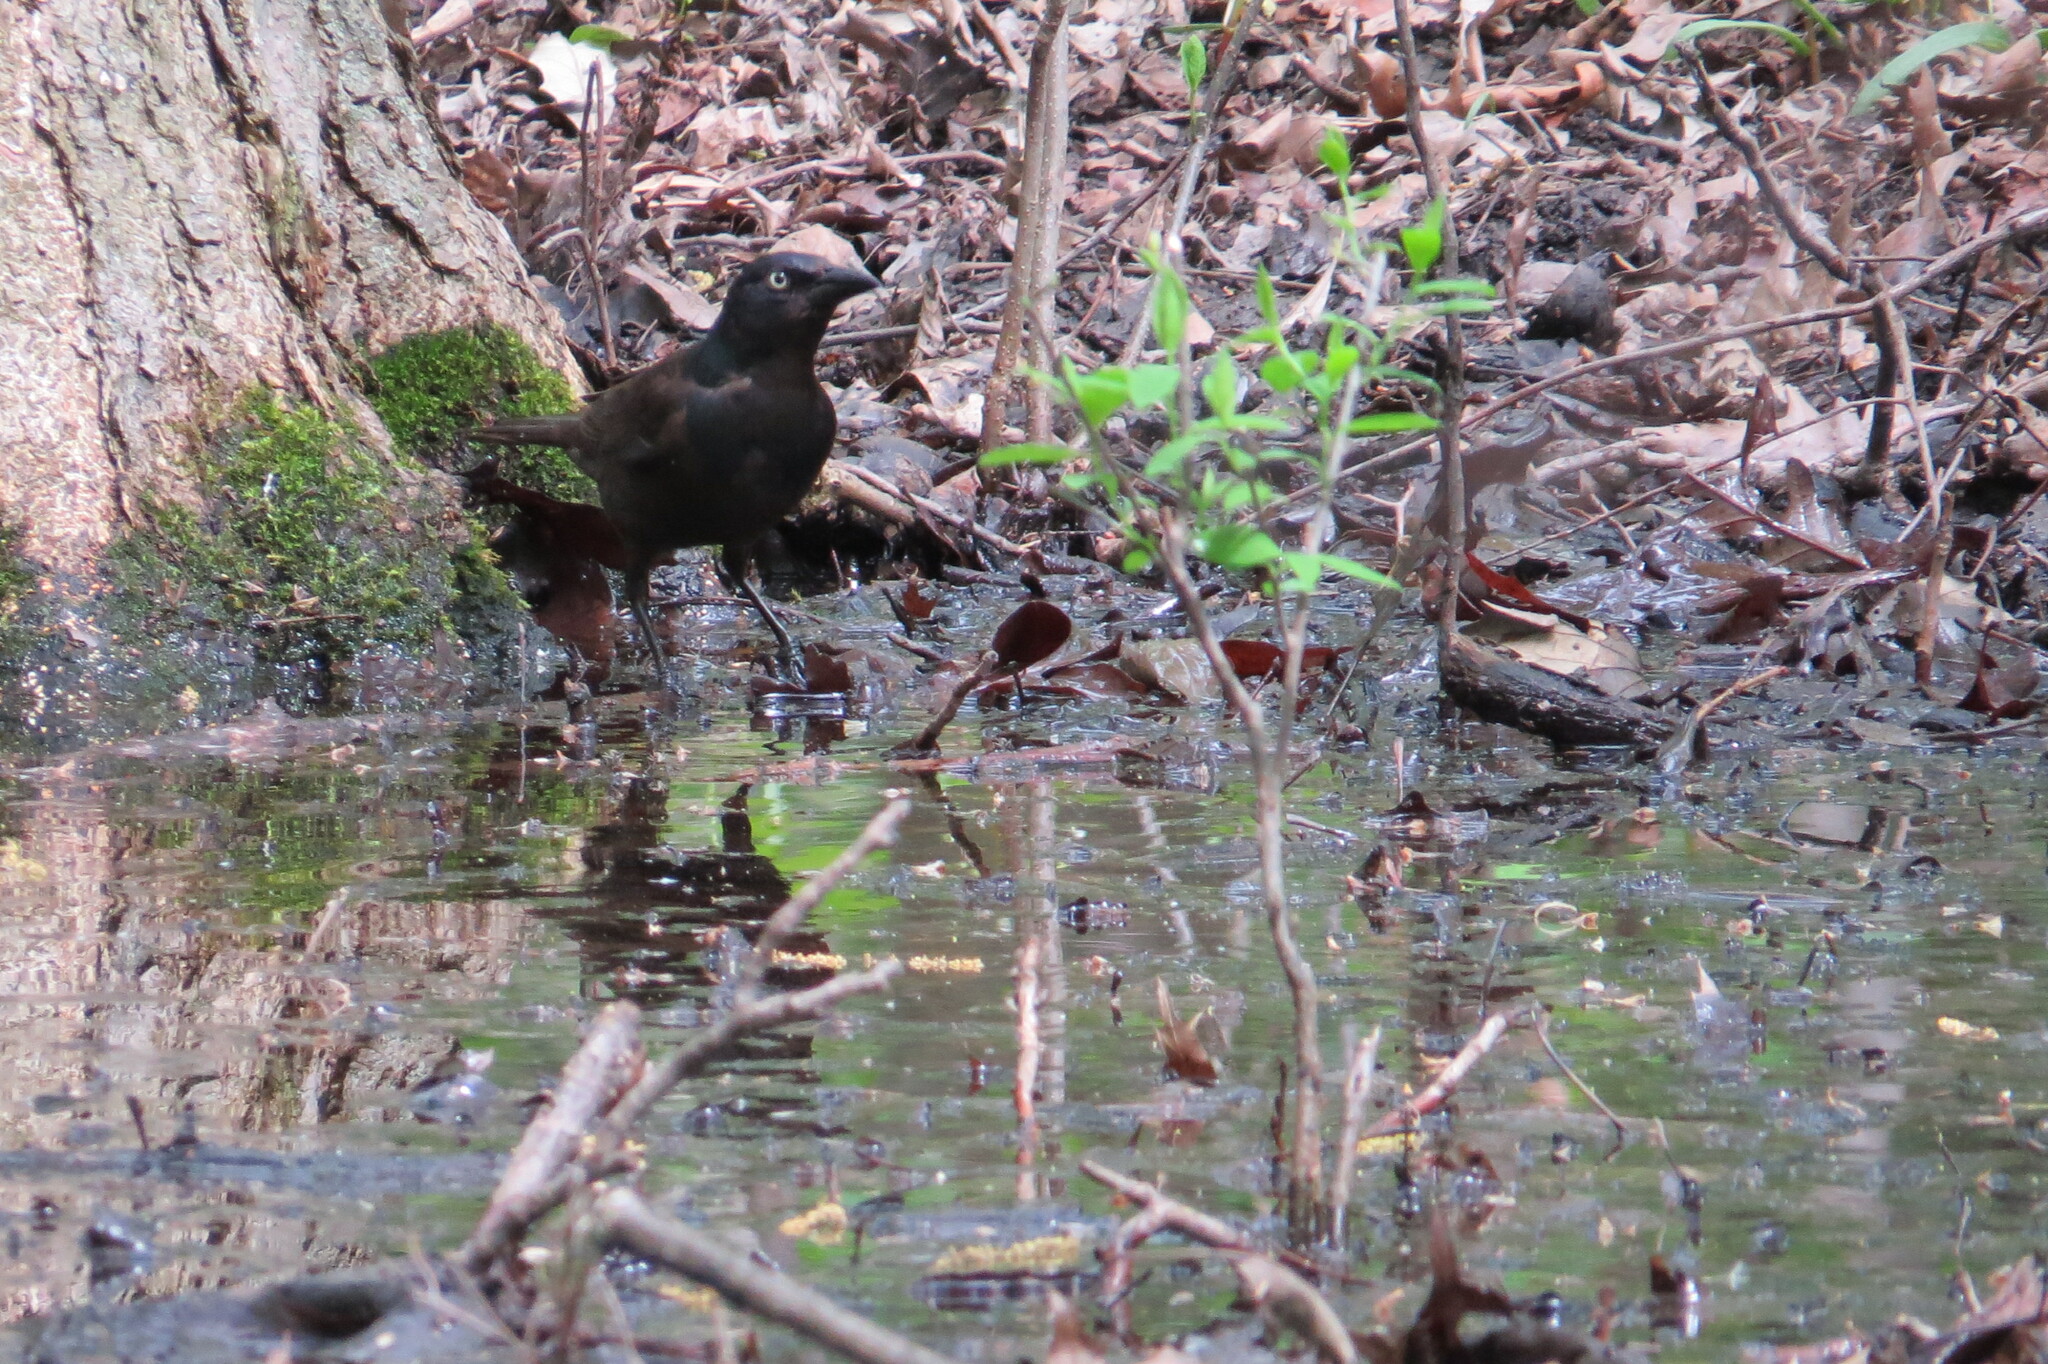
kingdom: Animalia
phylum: Chordata
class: Aves
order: Passeriformes
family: Icteridae
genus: Quiscalus
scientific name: Quiscalus quiscula
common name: Common grackle
